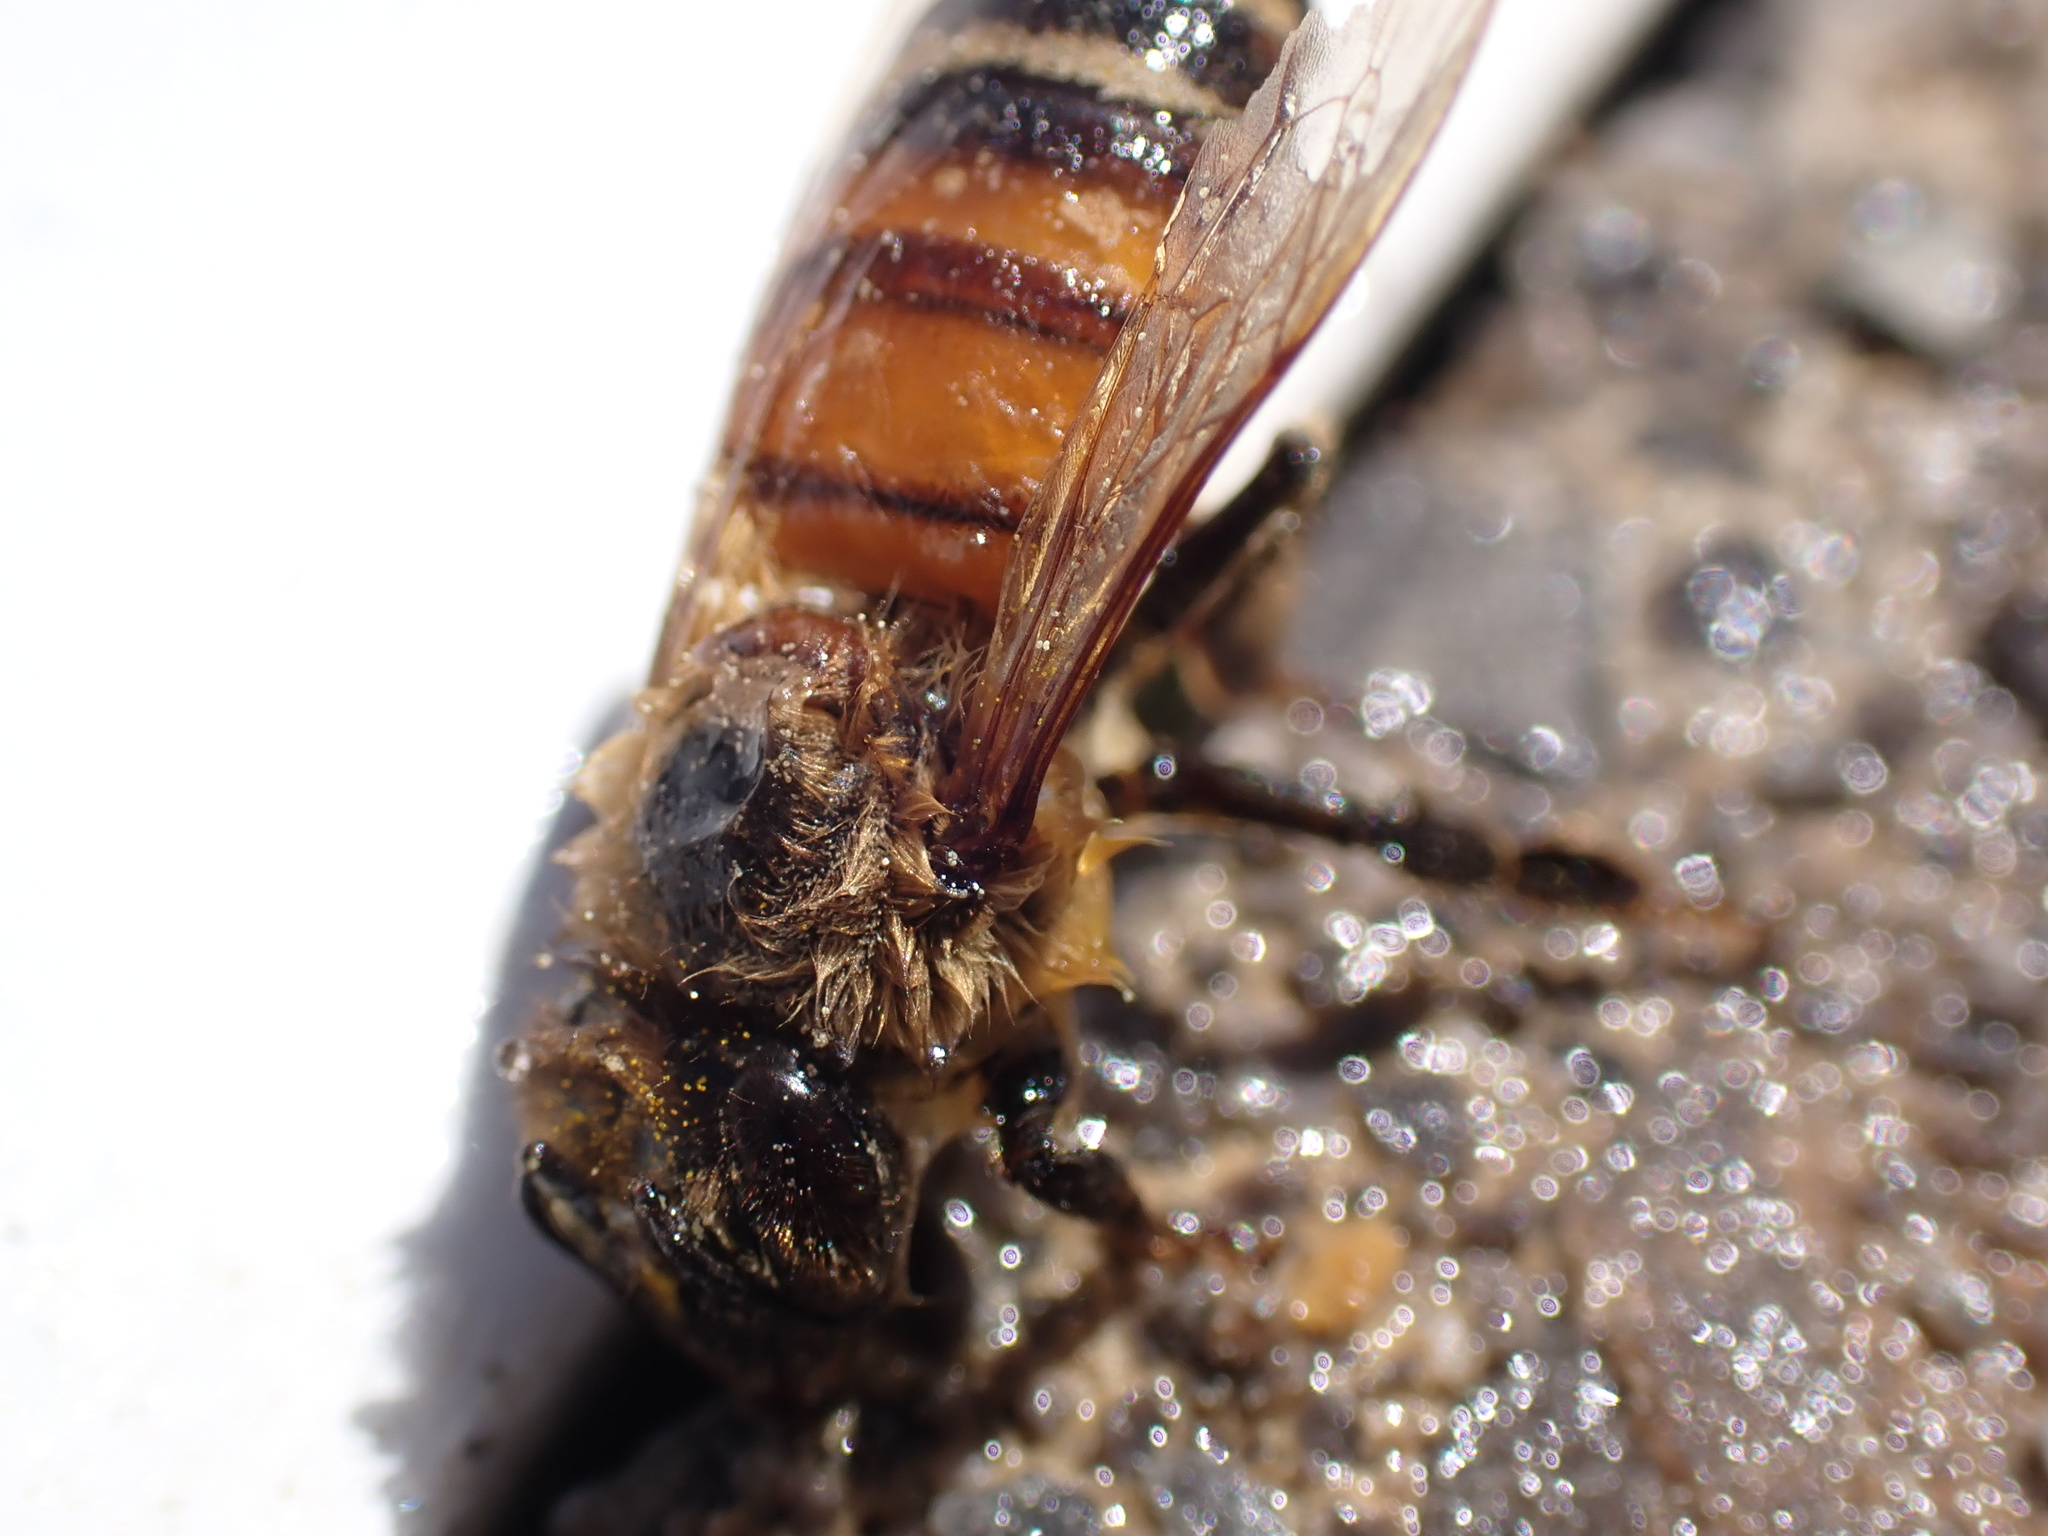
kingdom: Animalia
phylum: Arthropoda
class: Insecta
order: Hymenoptera
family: Apidae
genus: Apis
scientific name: Apis mellifera
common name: Honey bee
